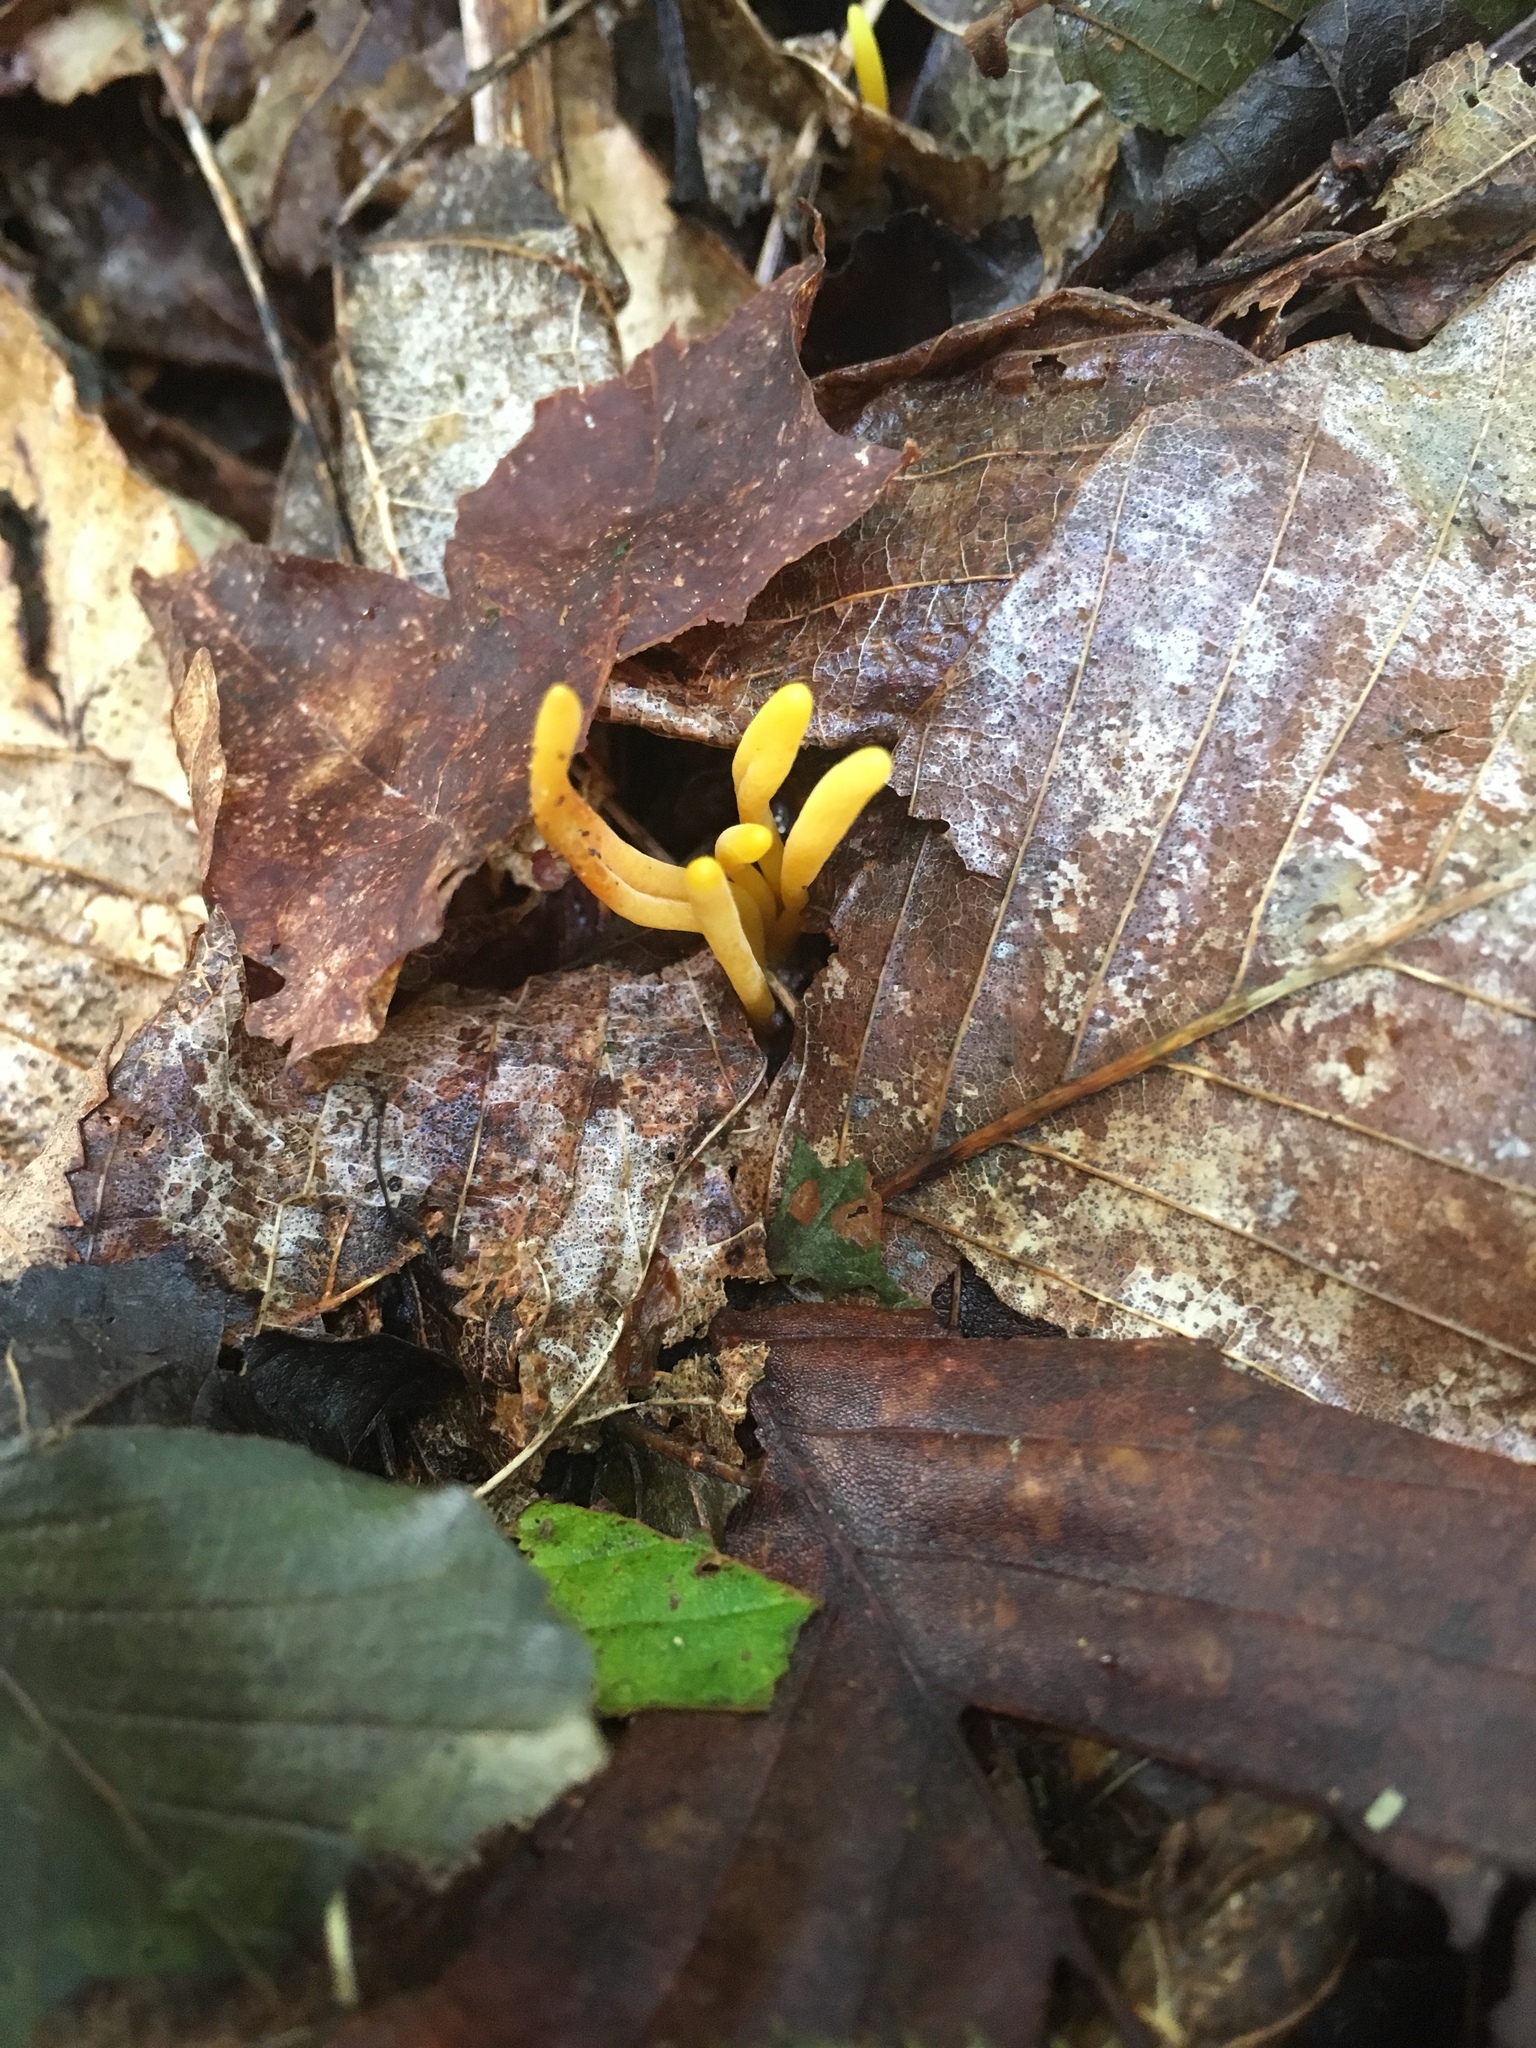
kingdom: Fungi
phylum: Basidiomycota
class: Agaricomycetes
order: Agaricales
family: Clavariaceae
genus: Clavulinopsis
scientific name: Clavulinopsis laeticolor
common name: Handsome club
